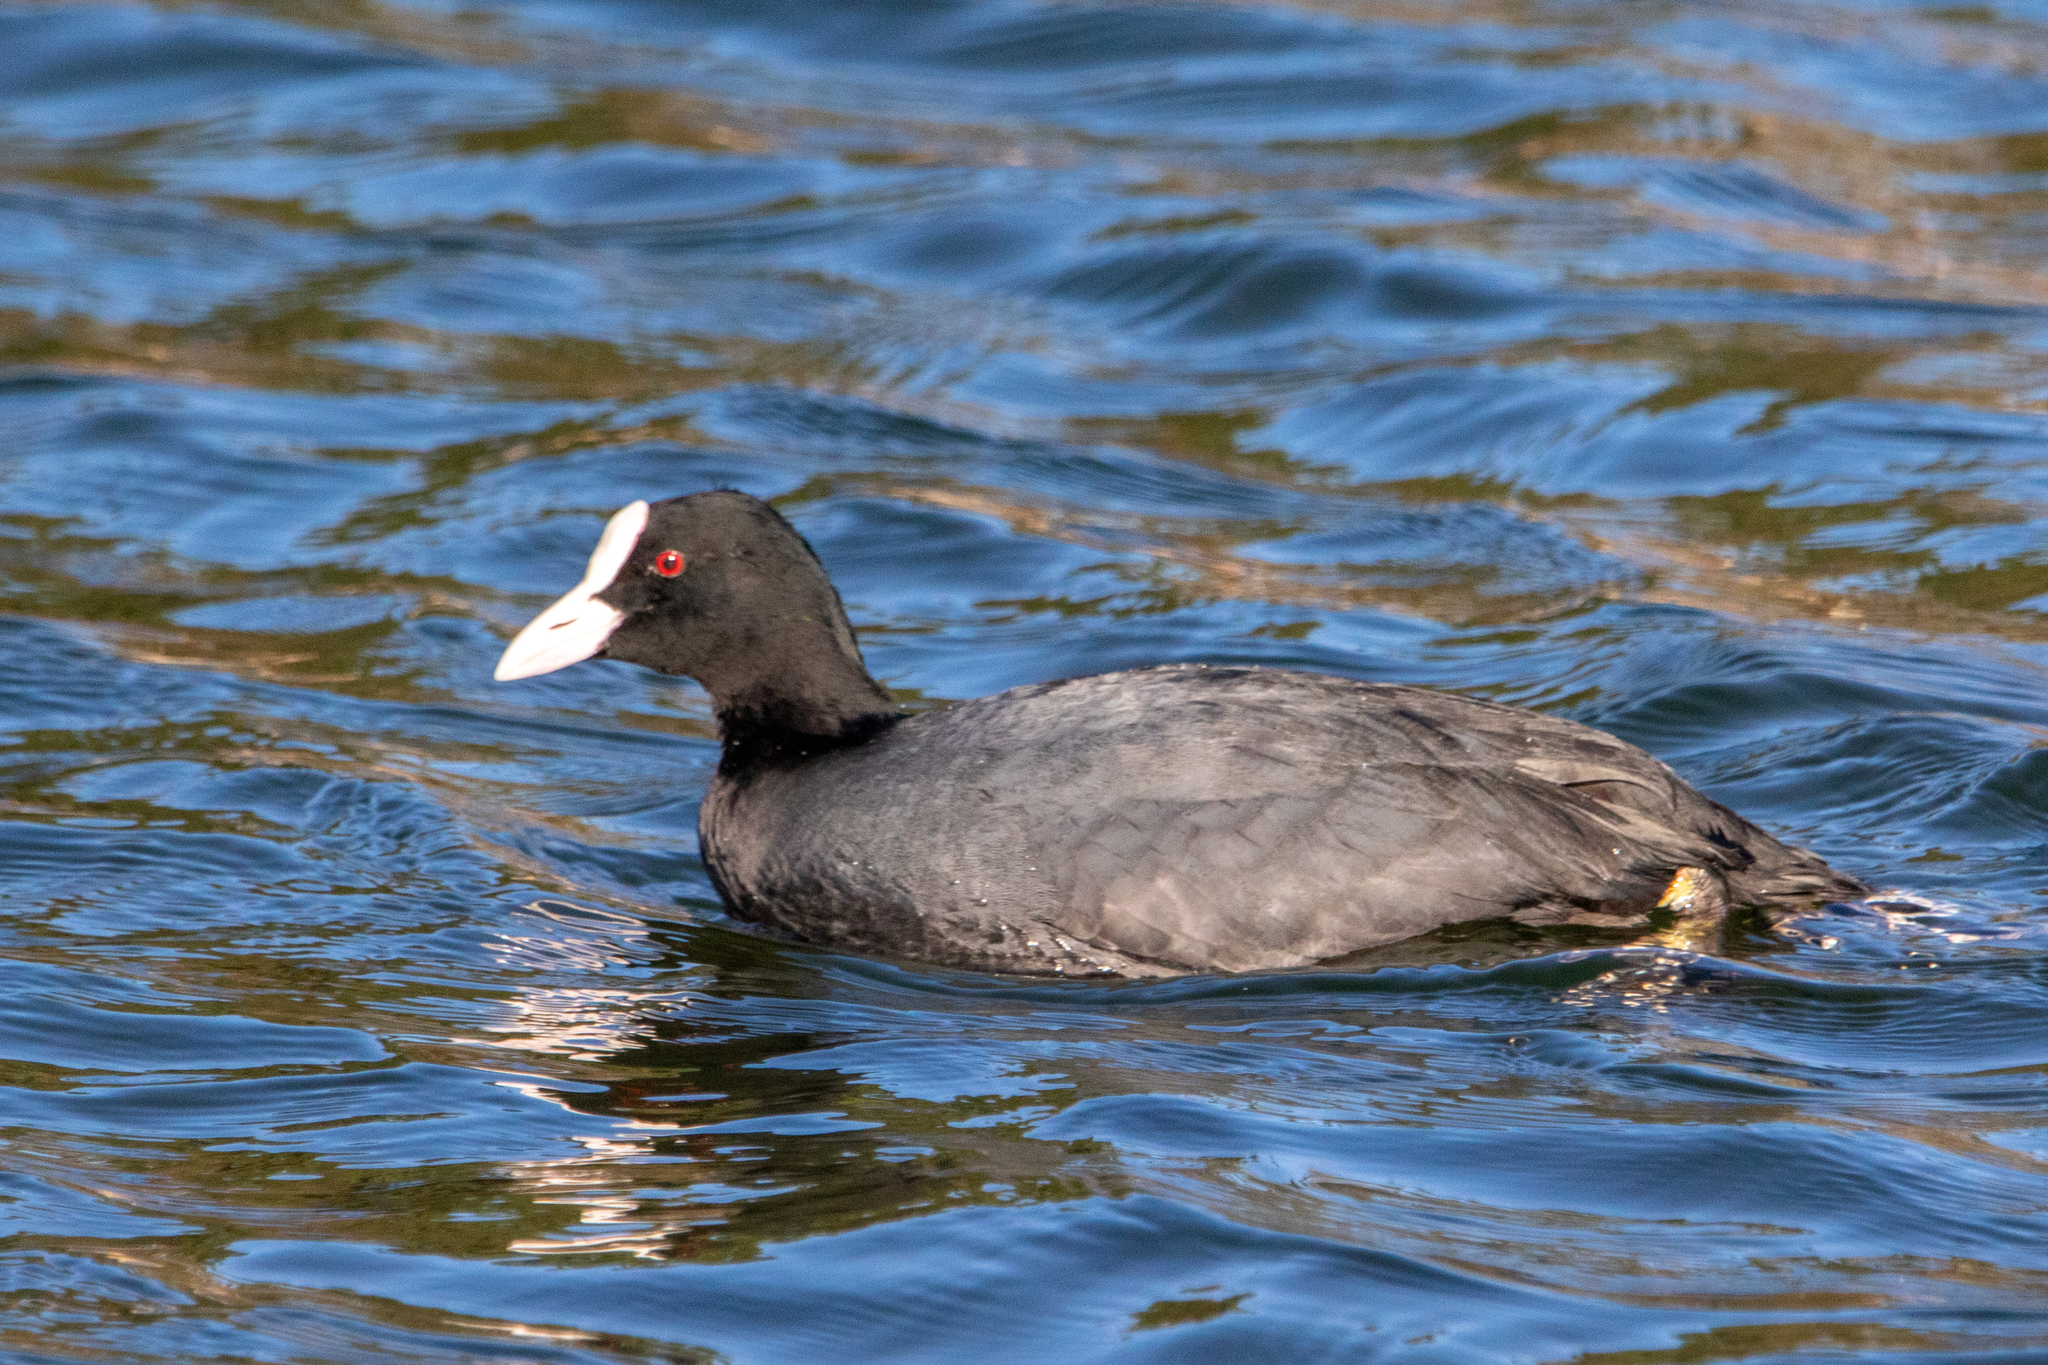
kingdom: Animalia
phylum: Chordata
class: Aves
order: Gruiformes
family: Rallidae
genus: Fulica
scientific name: Fulica atra
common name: Eurasian coot
